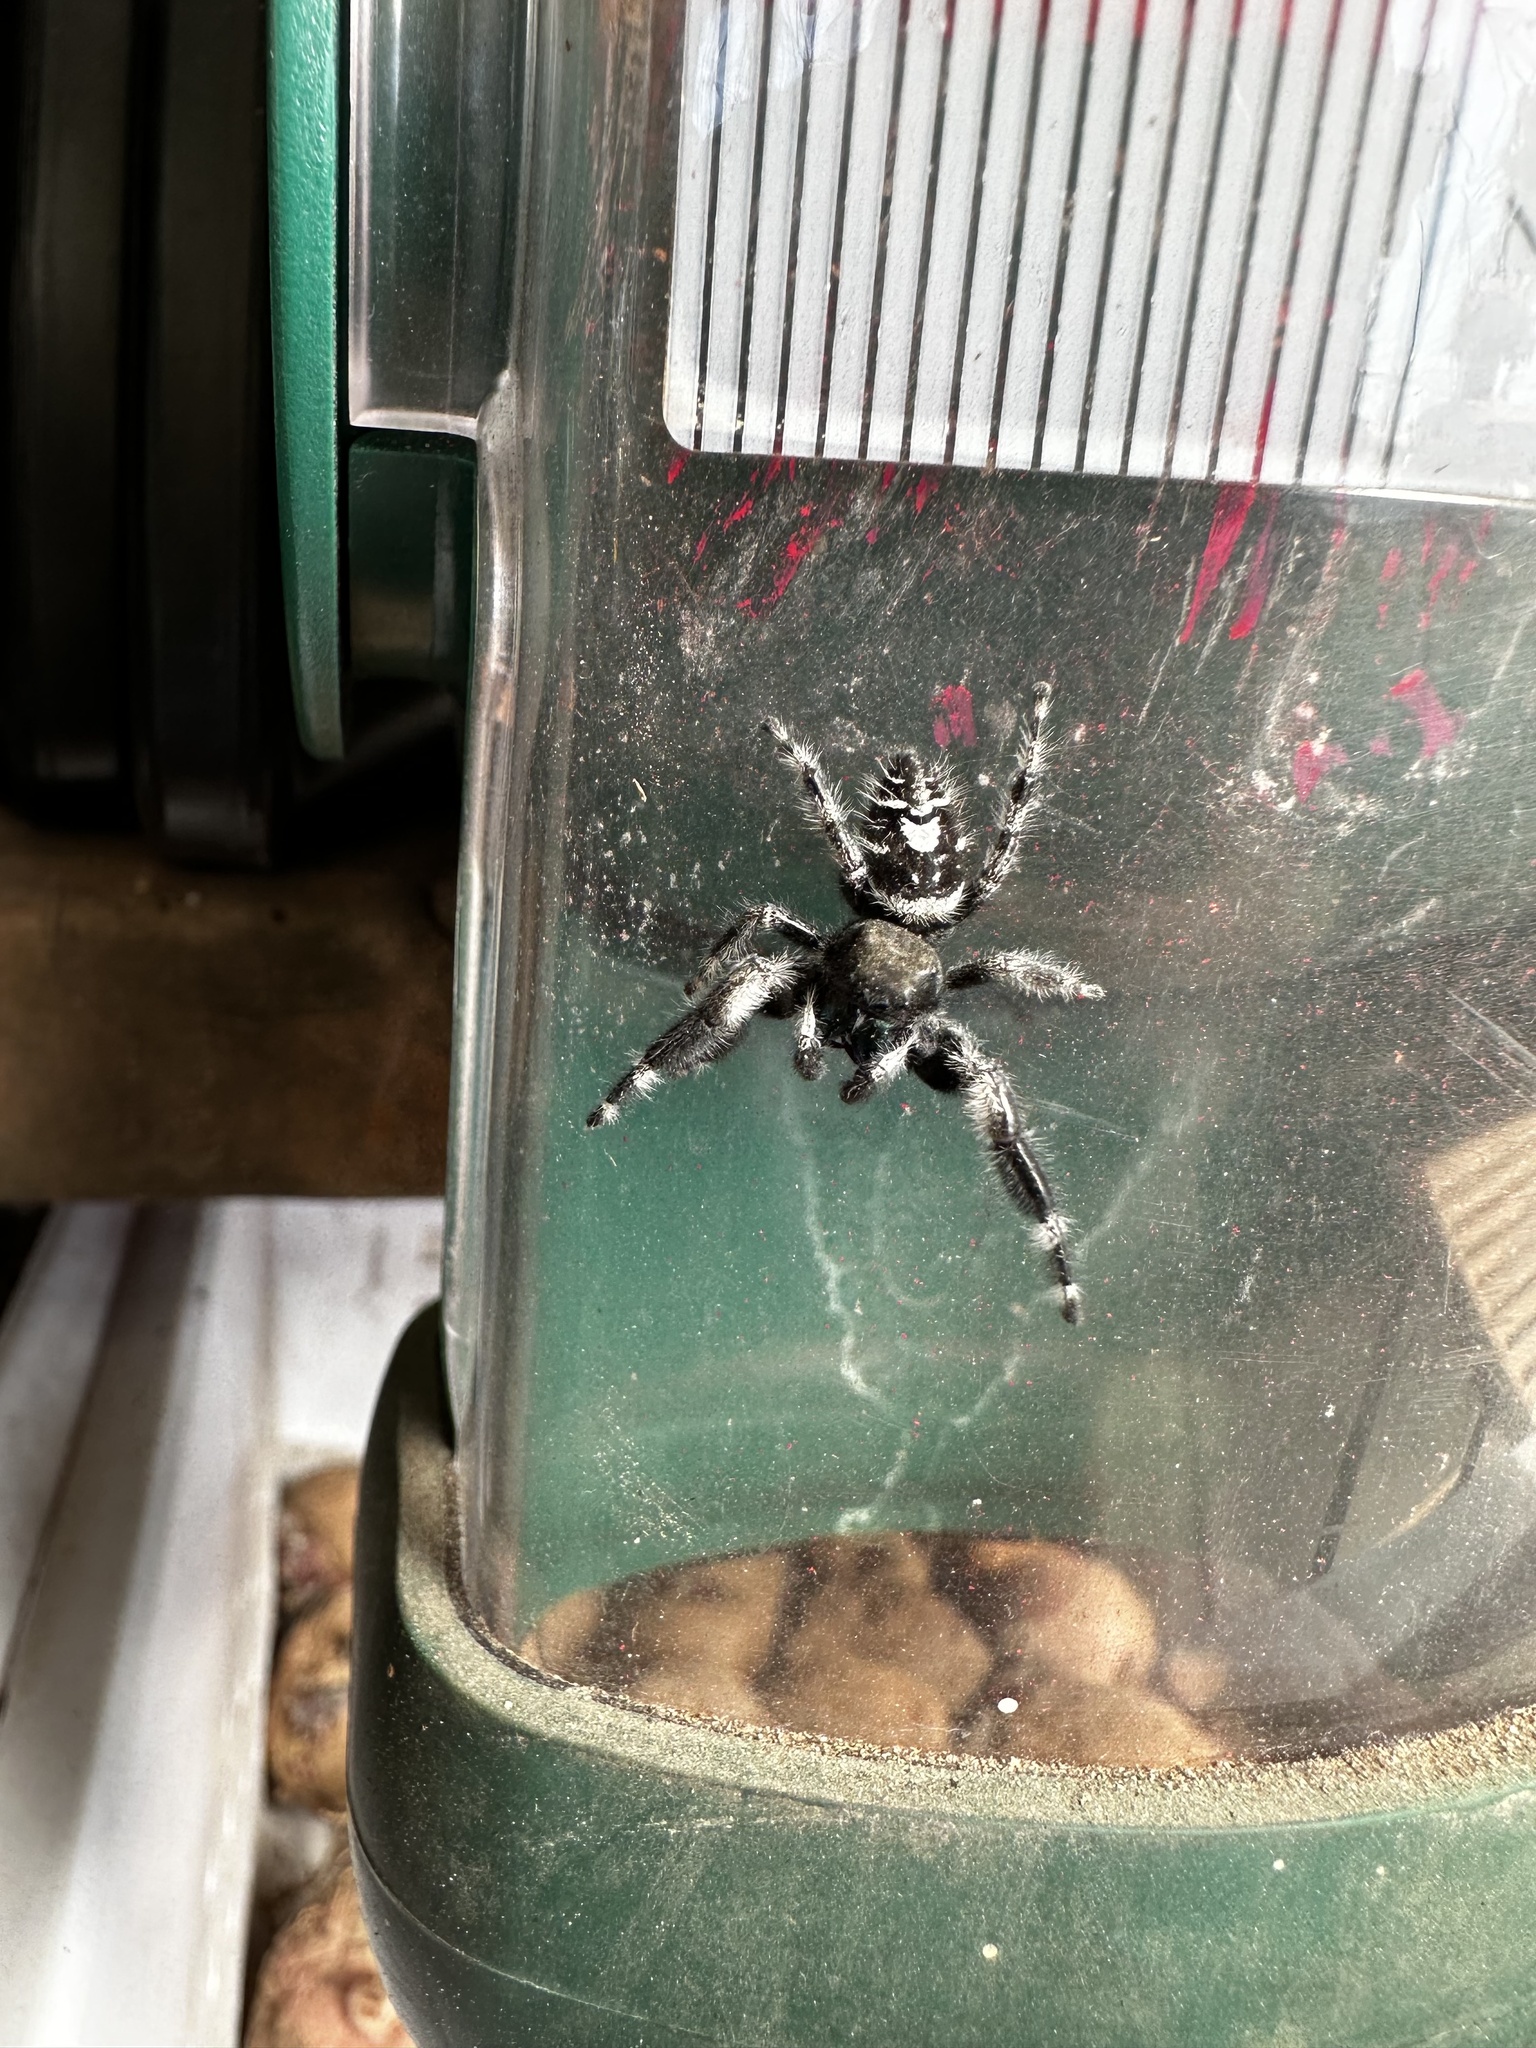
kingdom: Animalia
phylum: Arthropoda
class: Arachnida
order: Araneae
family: Salticidae
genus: Phidippus
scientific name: Phidippus audax
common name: Bold jumper
